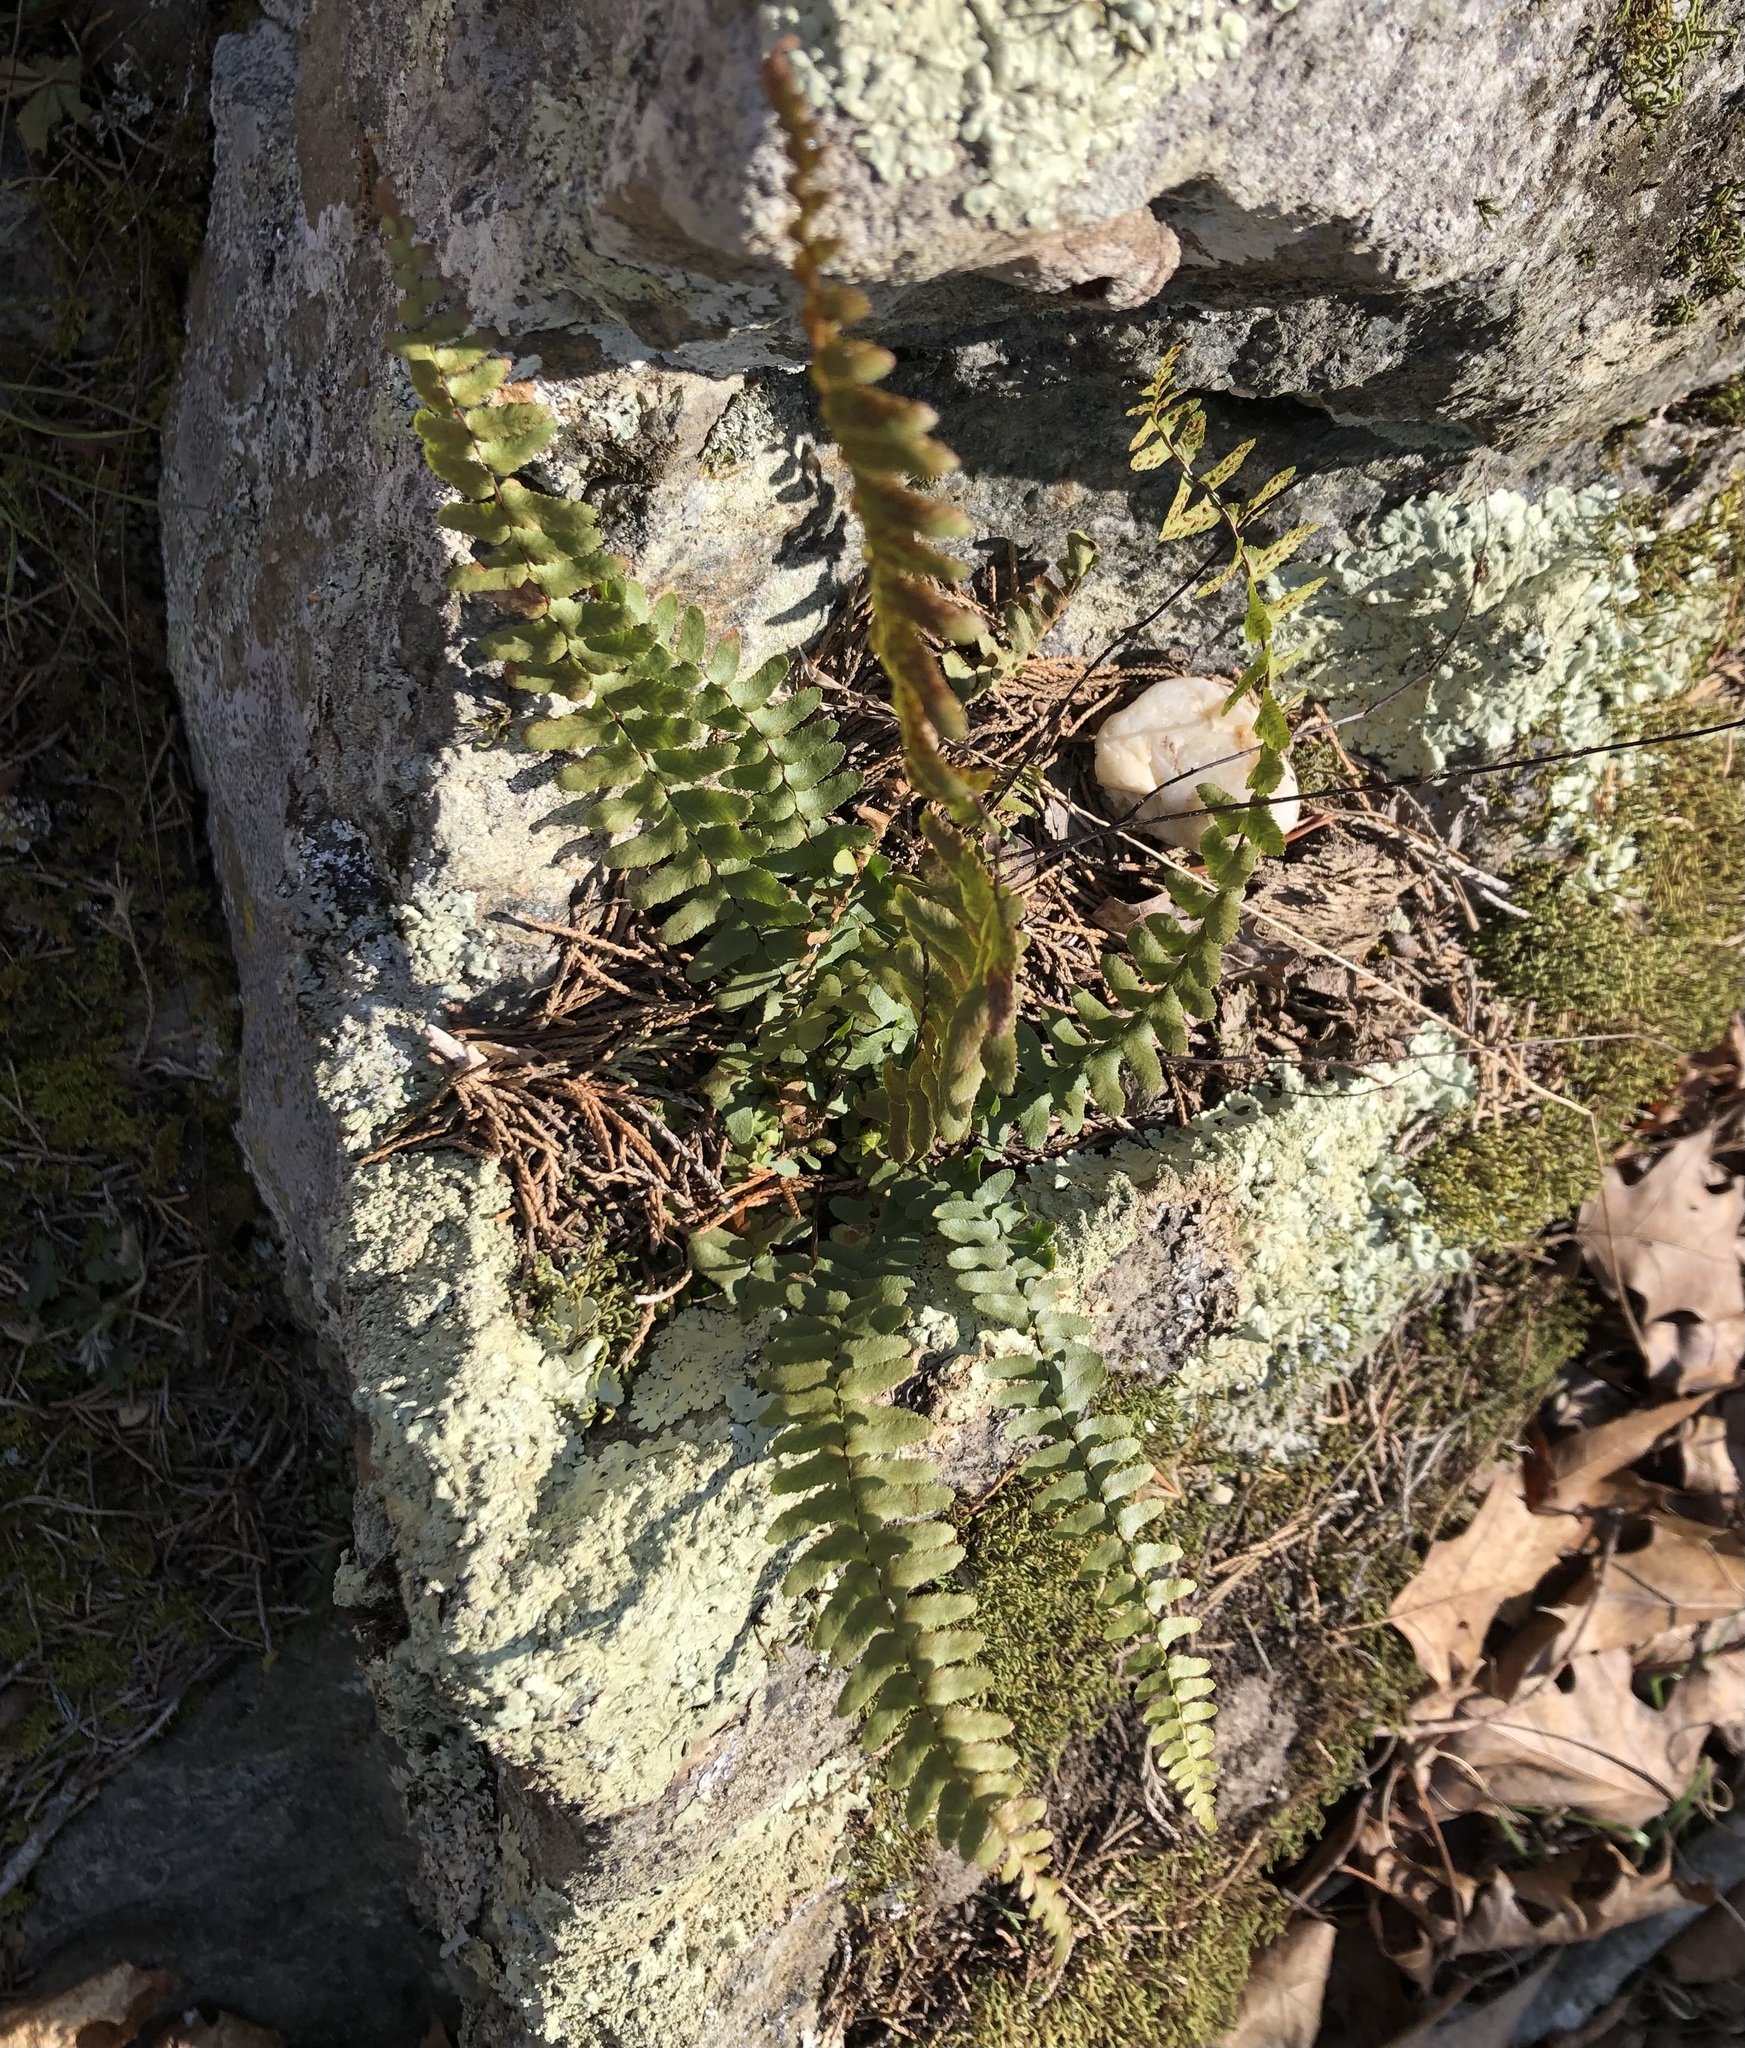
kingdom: Plantae
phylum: Tracheophyta
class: Polypodiopsida
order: Polypodiales
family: Aspleniaceae
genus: Asplenium
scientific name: Asplenium platyneuron
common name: Ebony spleenwort
